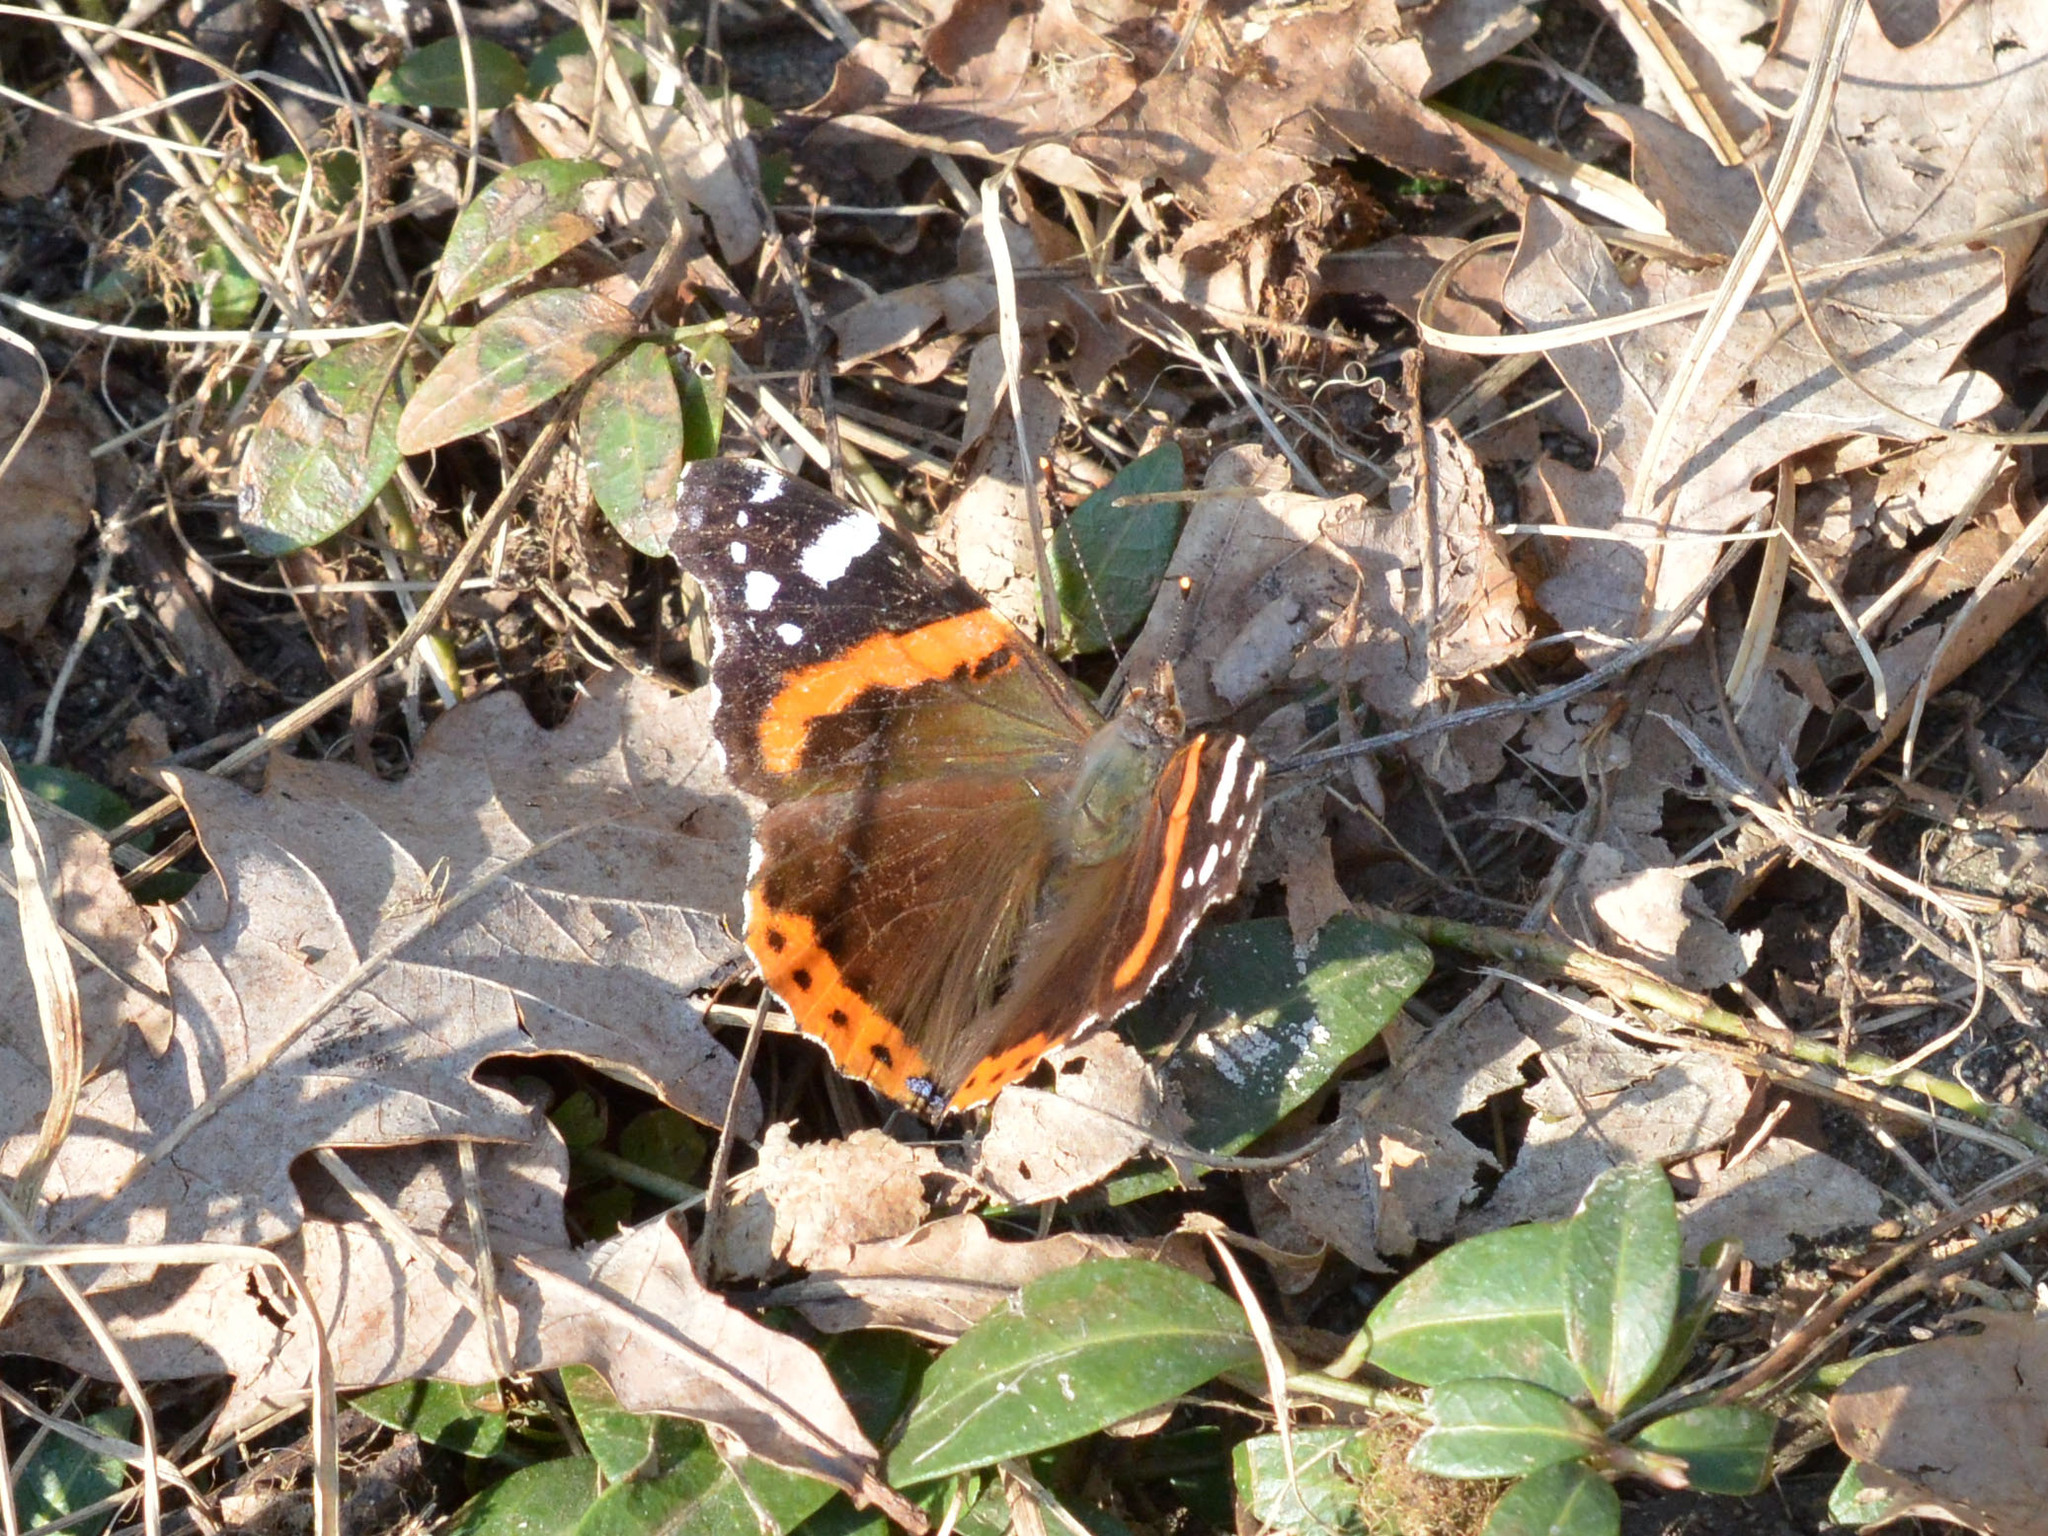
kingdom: Animalia
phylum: Arthropoda
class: Insecta
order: Lepidoptera
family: Nymphalidae
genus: Vanessa
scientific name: Vanessa atalanta
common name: Red admiral
